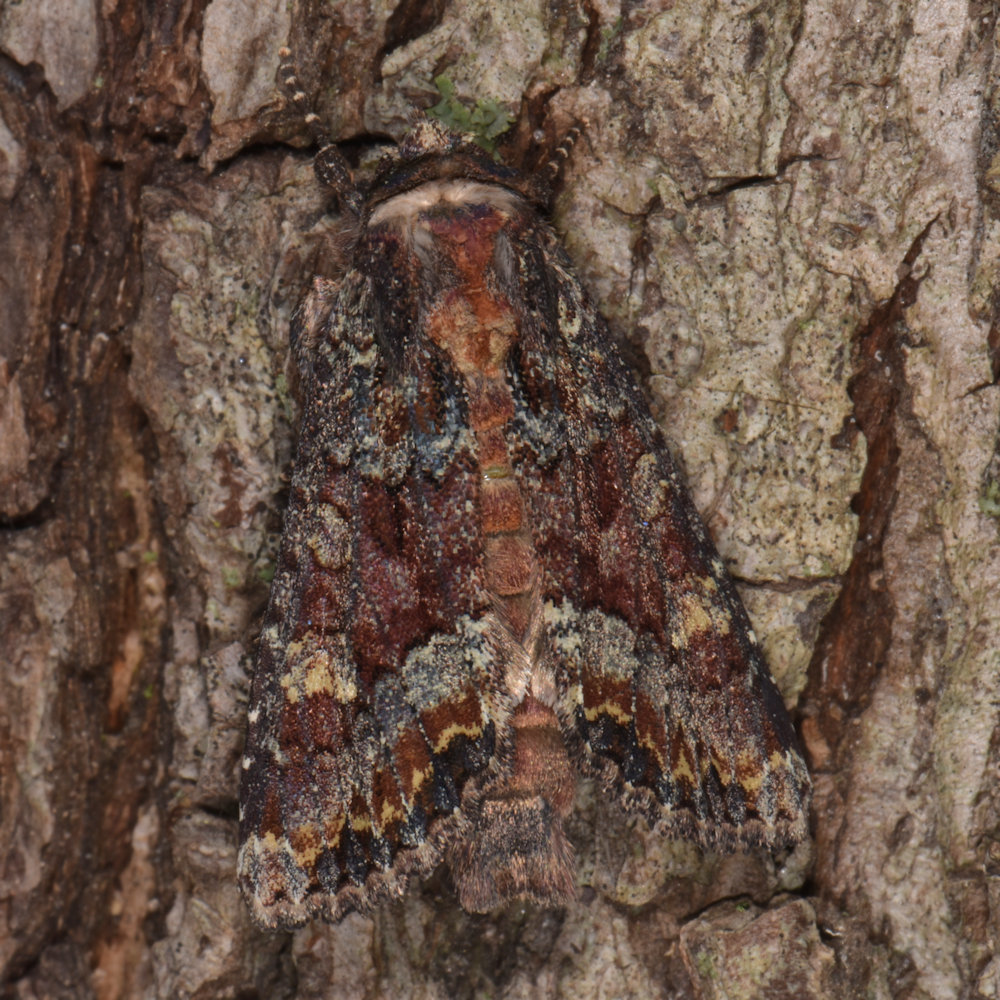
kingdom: Animalia
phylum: Arthropoda
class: Insecta
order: Lepidoptera
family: Noctuidae
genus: Apamea
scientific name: Apamea amputatrix
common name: Yellow-headed cutworm moth
